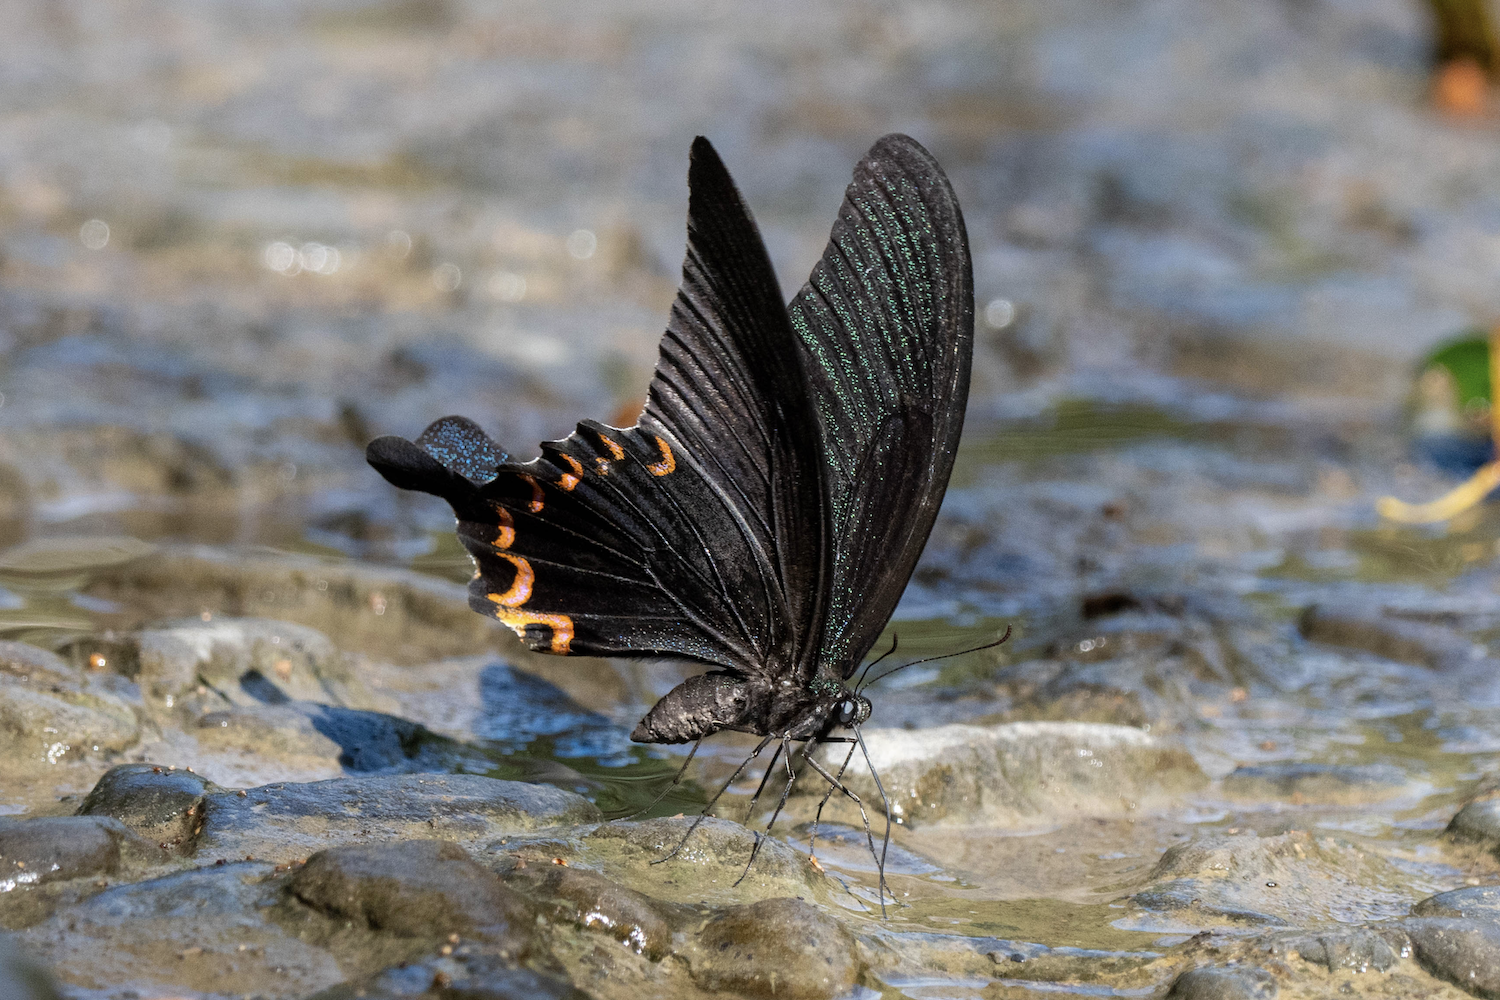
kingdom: Animalia
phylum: Arthropoda
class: Insecta
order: Lepidoptera
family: Papilionidae
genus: Papilio
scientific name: Papilio dialis
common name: Southern chinese peacock swallowtail
